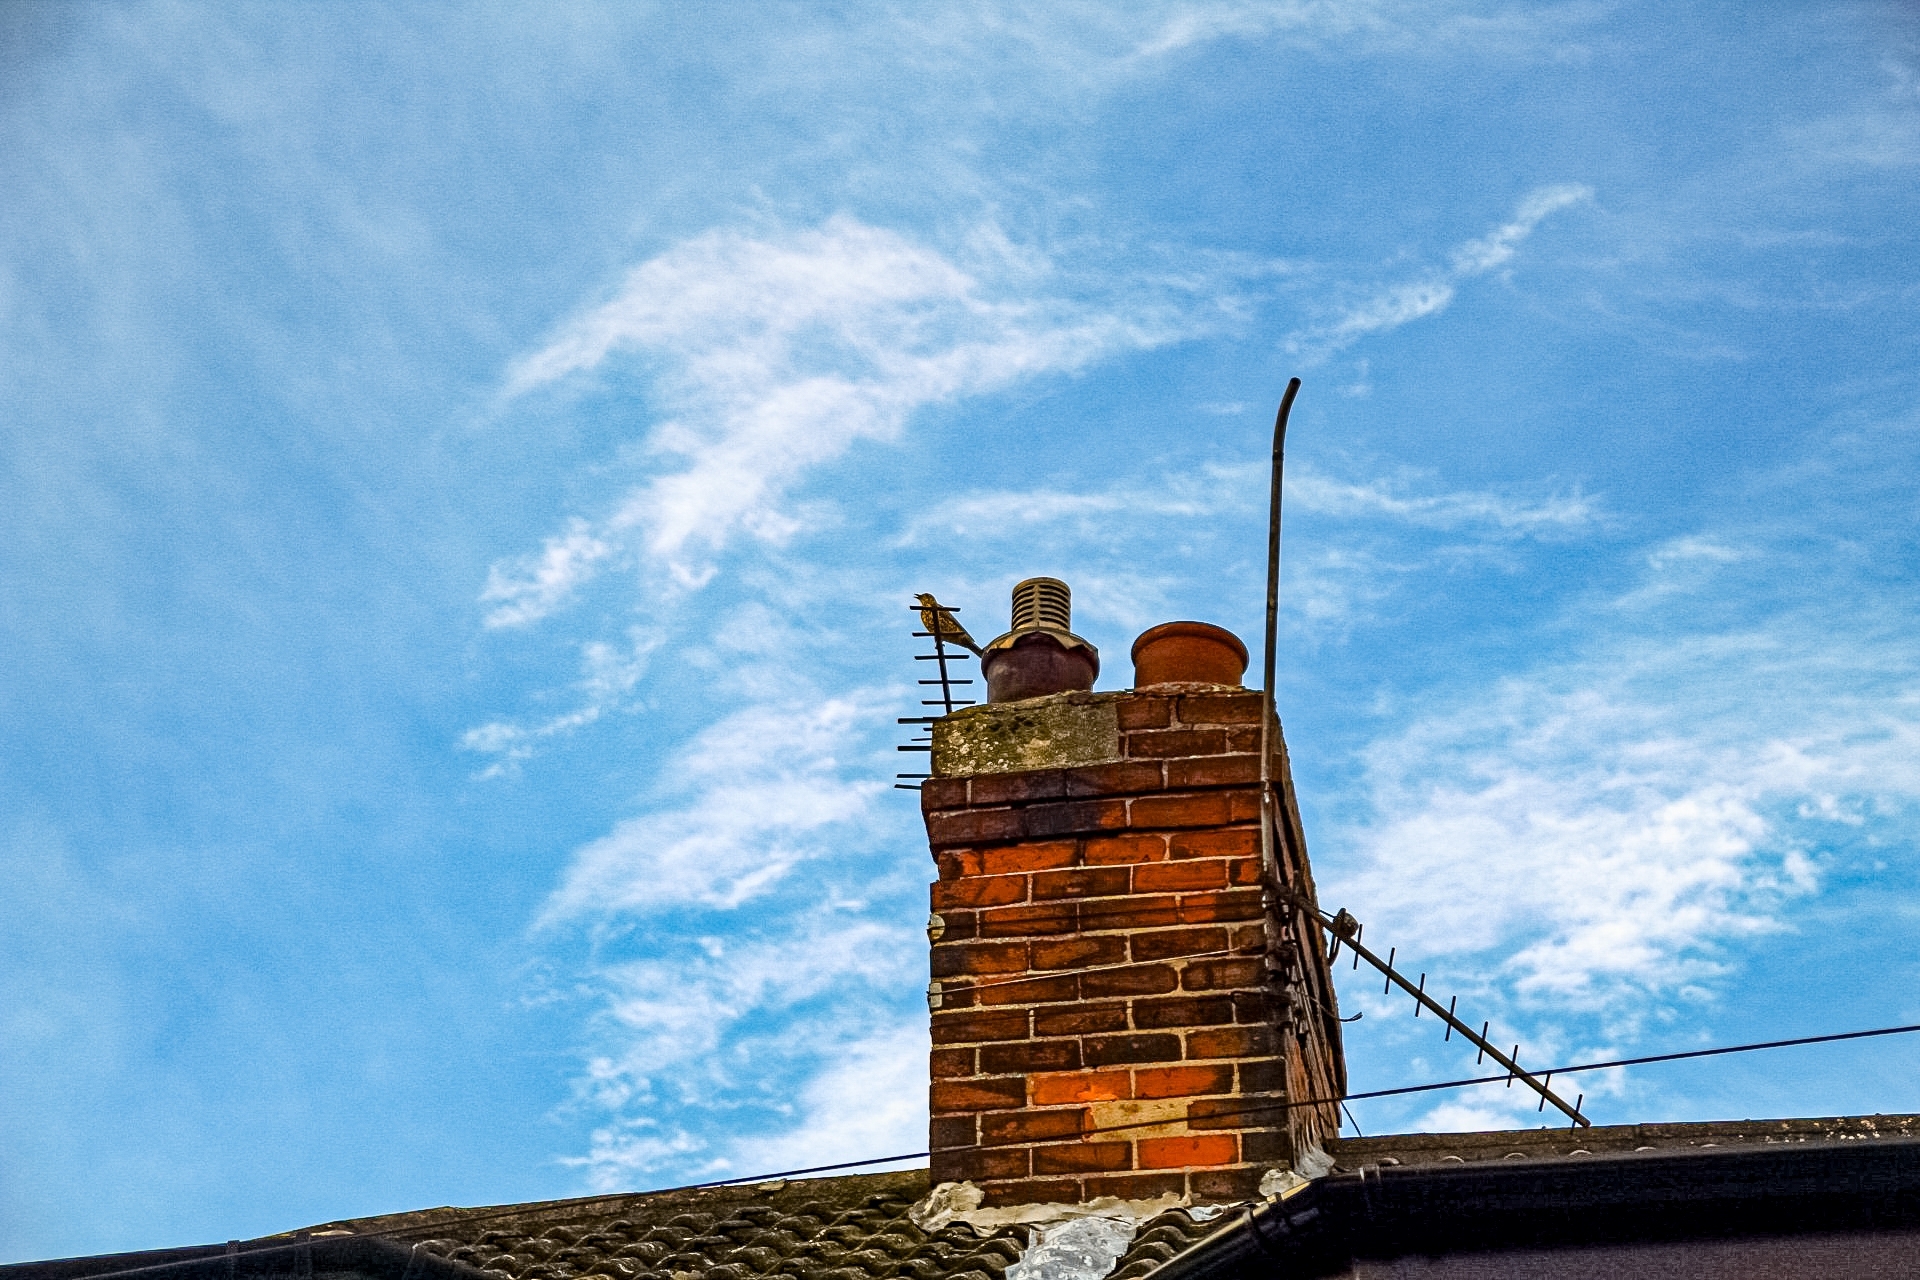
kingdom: Animalia
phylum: Chordata
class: Aves
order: Passeriformes
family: Turdidae
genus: Turdus
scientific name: Turdus viscivorus
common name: Mistle thrush
